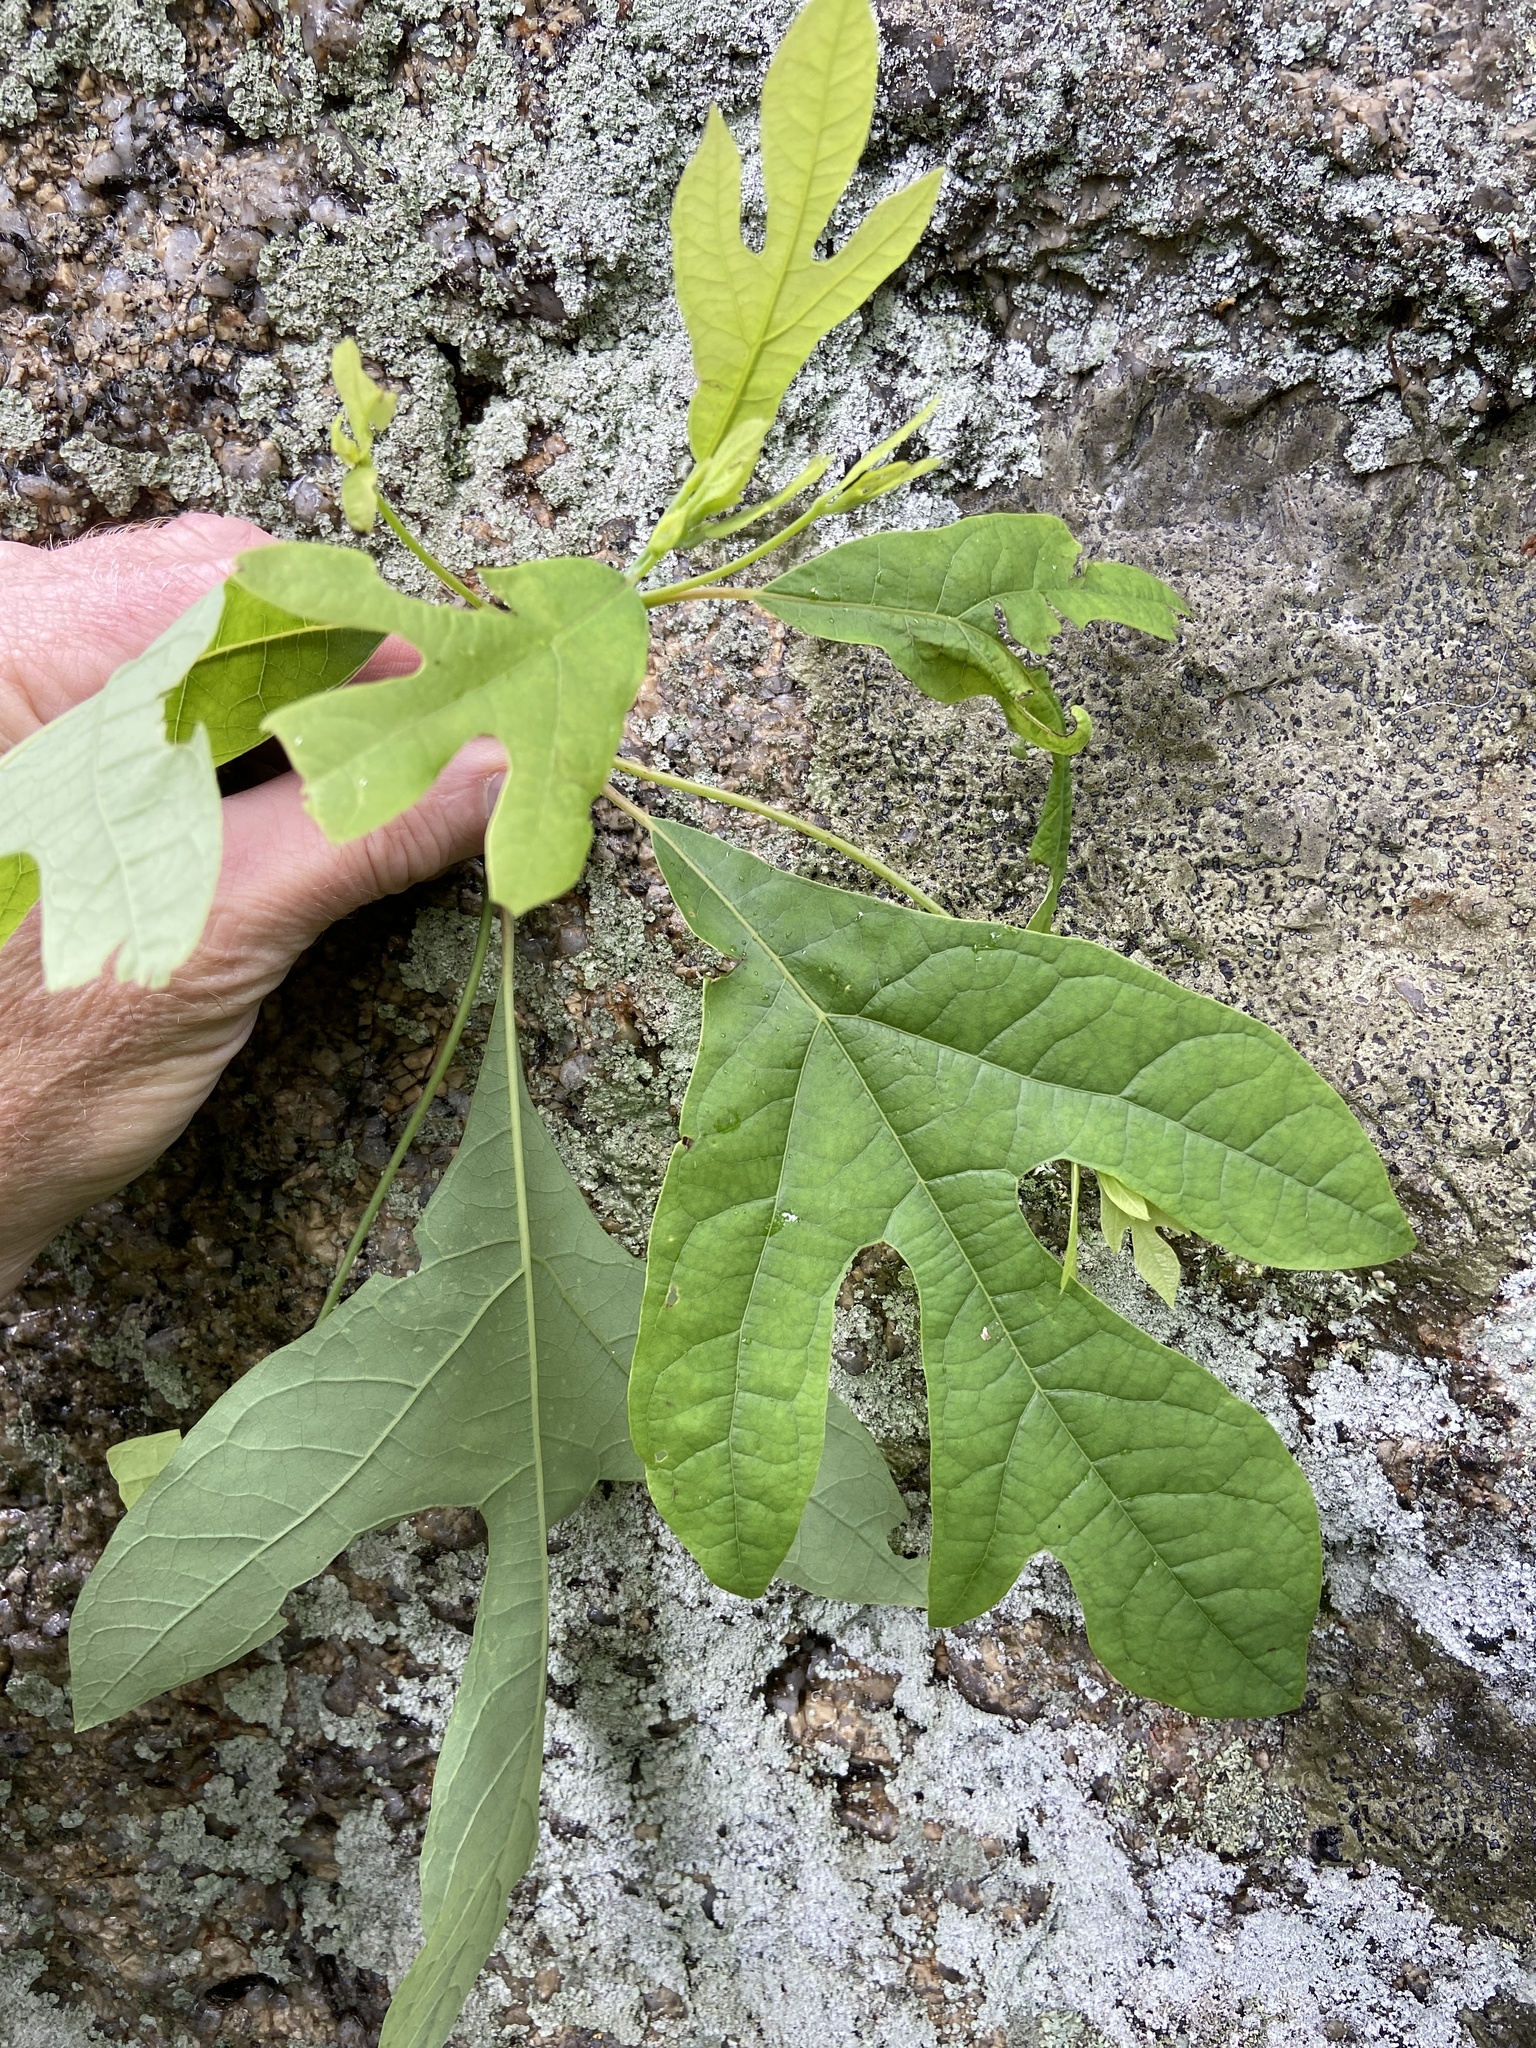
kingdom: Plantae
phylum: Tracheophyta
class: Magnoliopsida
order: Laurales
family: Lauraceae
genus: Sassafras
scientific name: Sassafras albidum
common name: Sassafras
